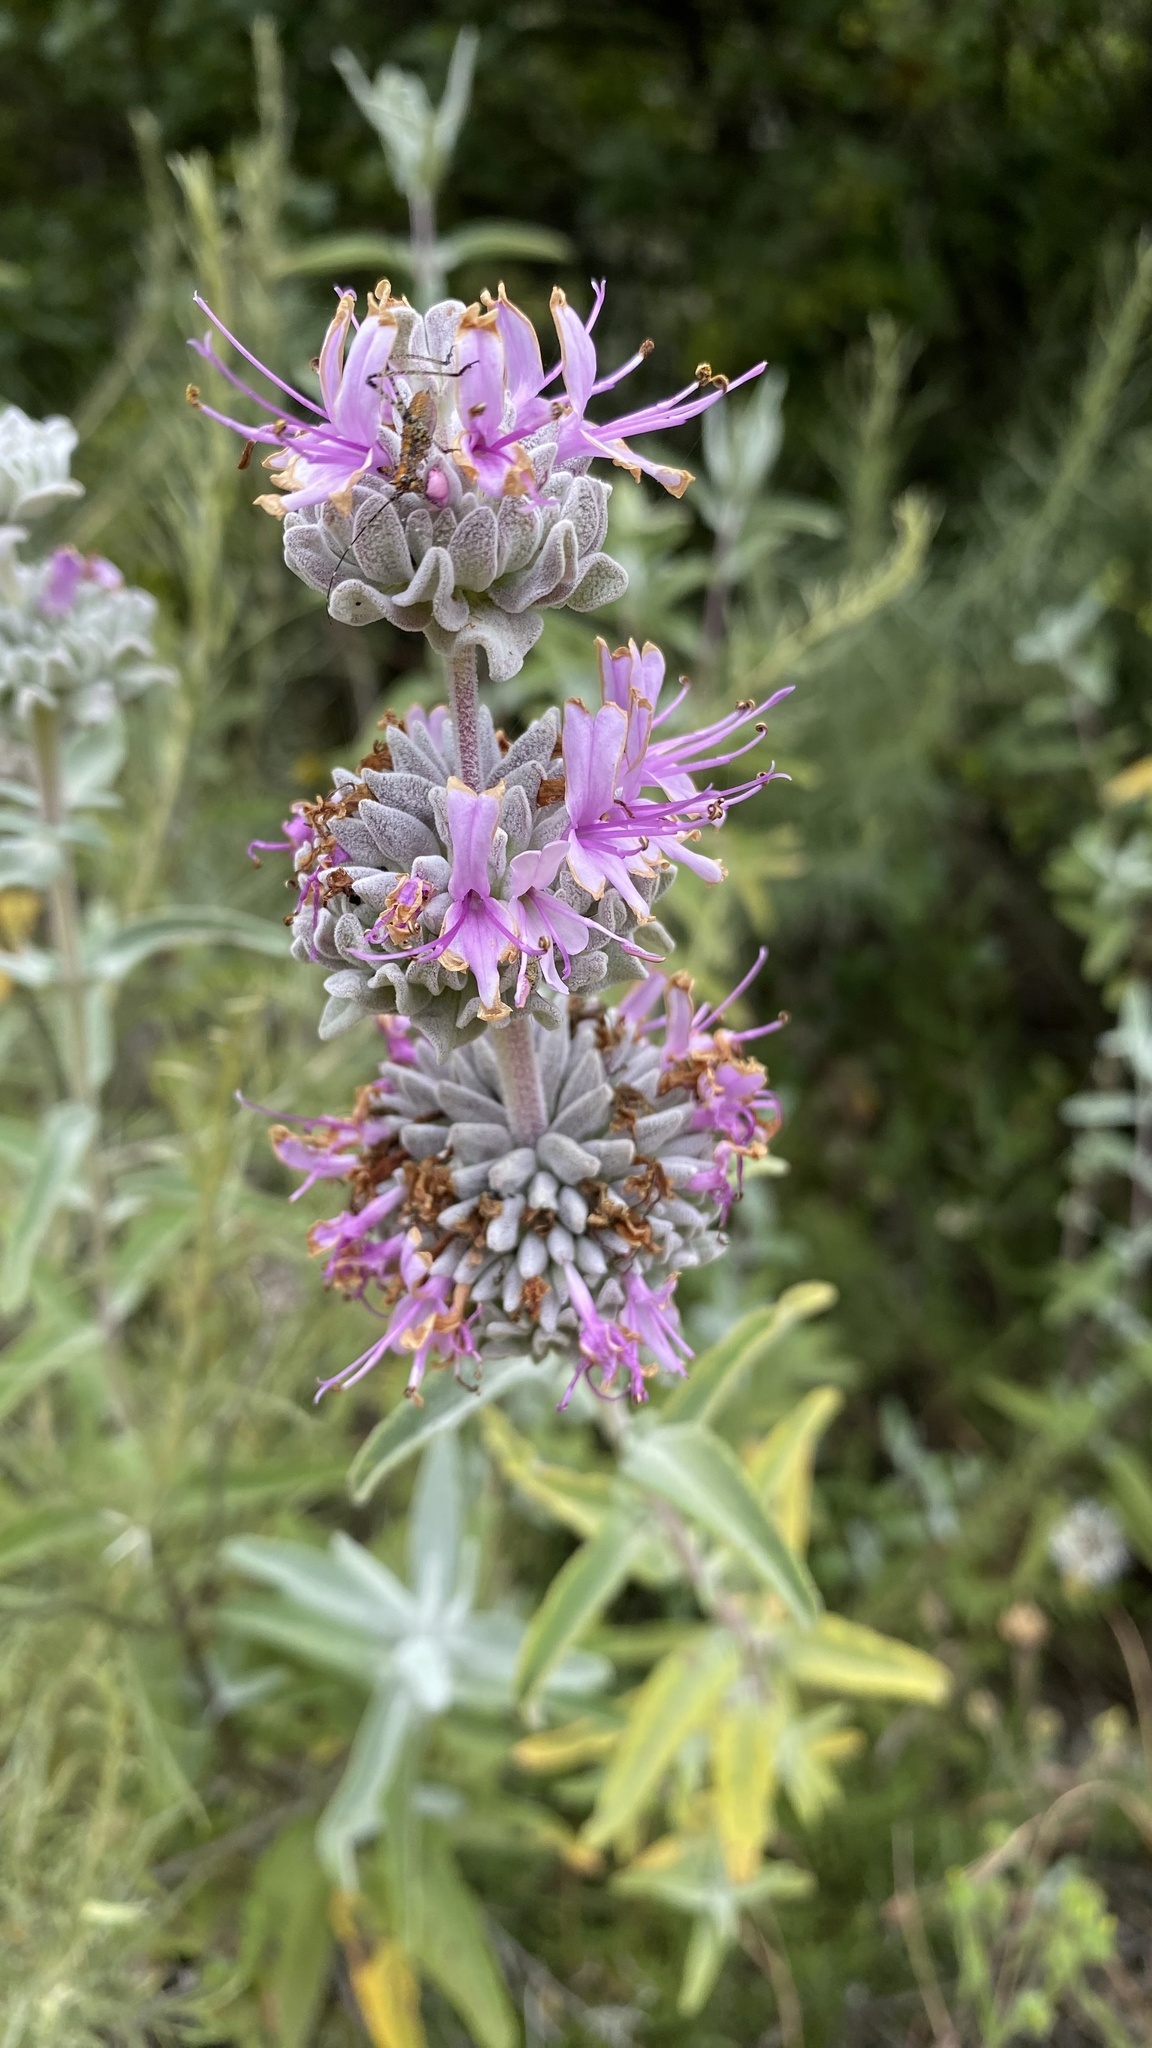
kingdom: Plantae
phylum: Tracheophyta
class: Magnoliopsida
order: Lamiales
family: Lamiaceae
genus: Salvia
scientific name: Salvia leucophylla
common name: Purple sage
